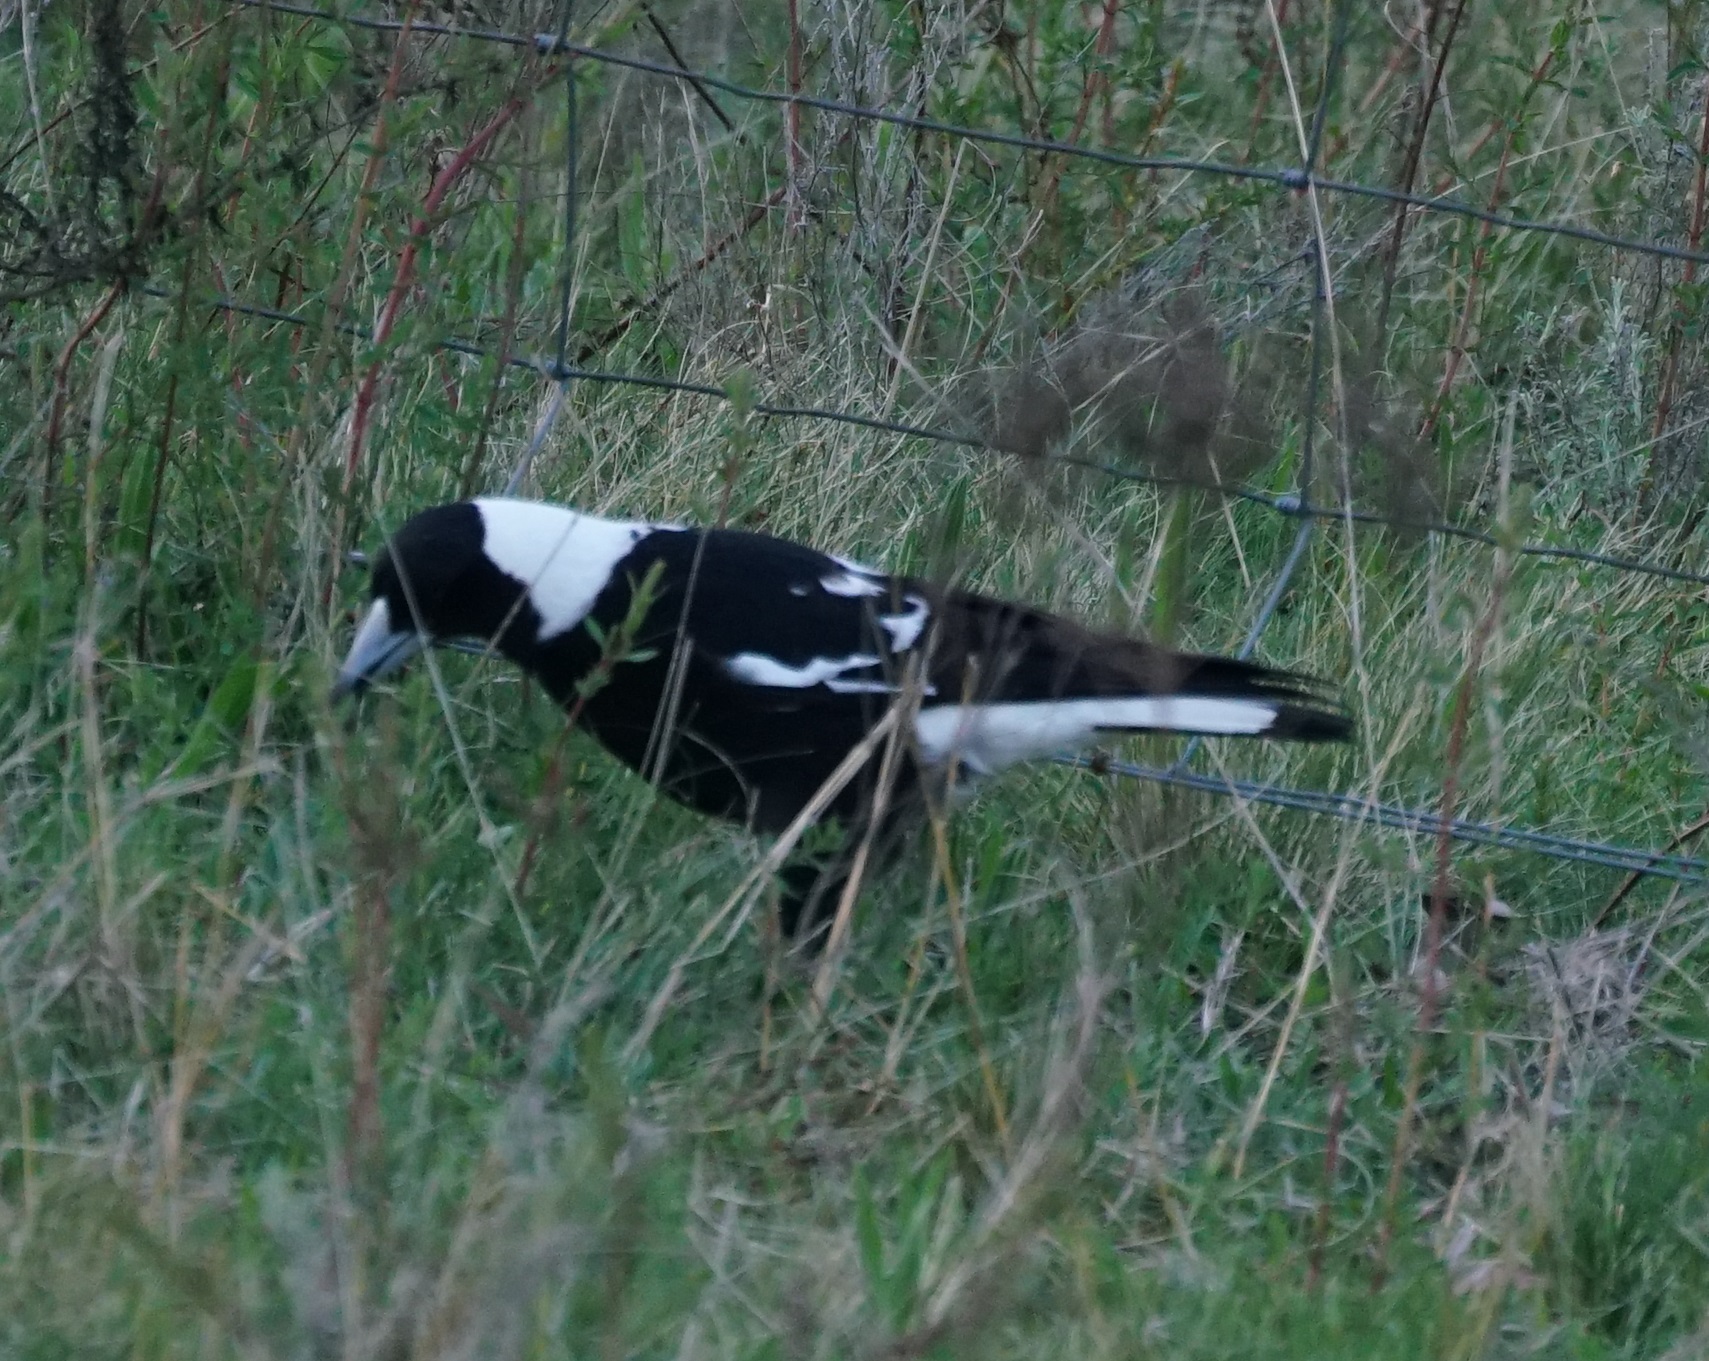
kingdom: Animalia
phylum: Chordata
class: Aves
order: Passeriformes
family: Cracticidae
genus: Gymnorhina
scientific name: Gymnorhina tibicen
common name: Australian magpie
